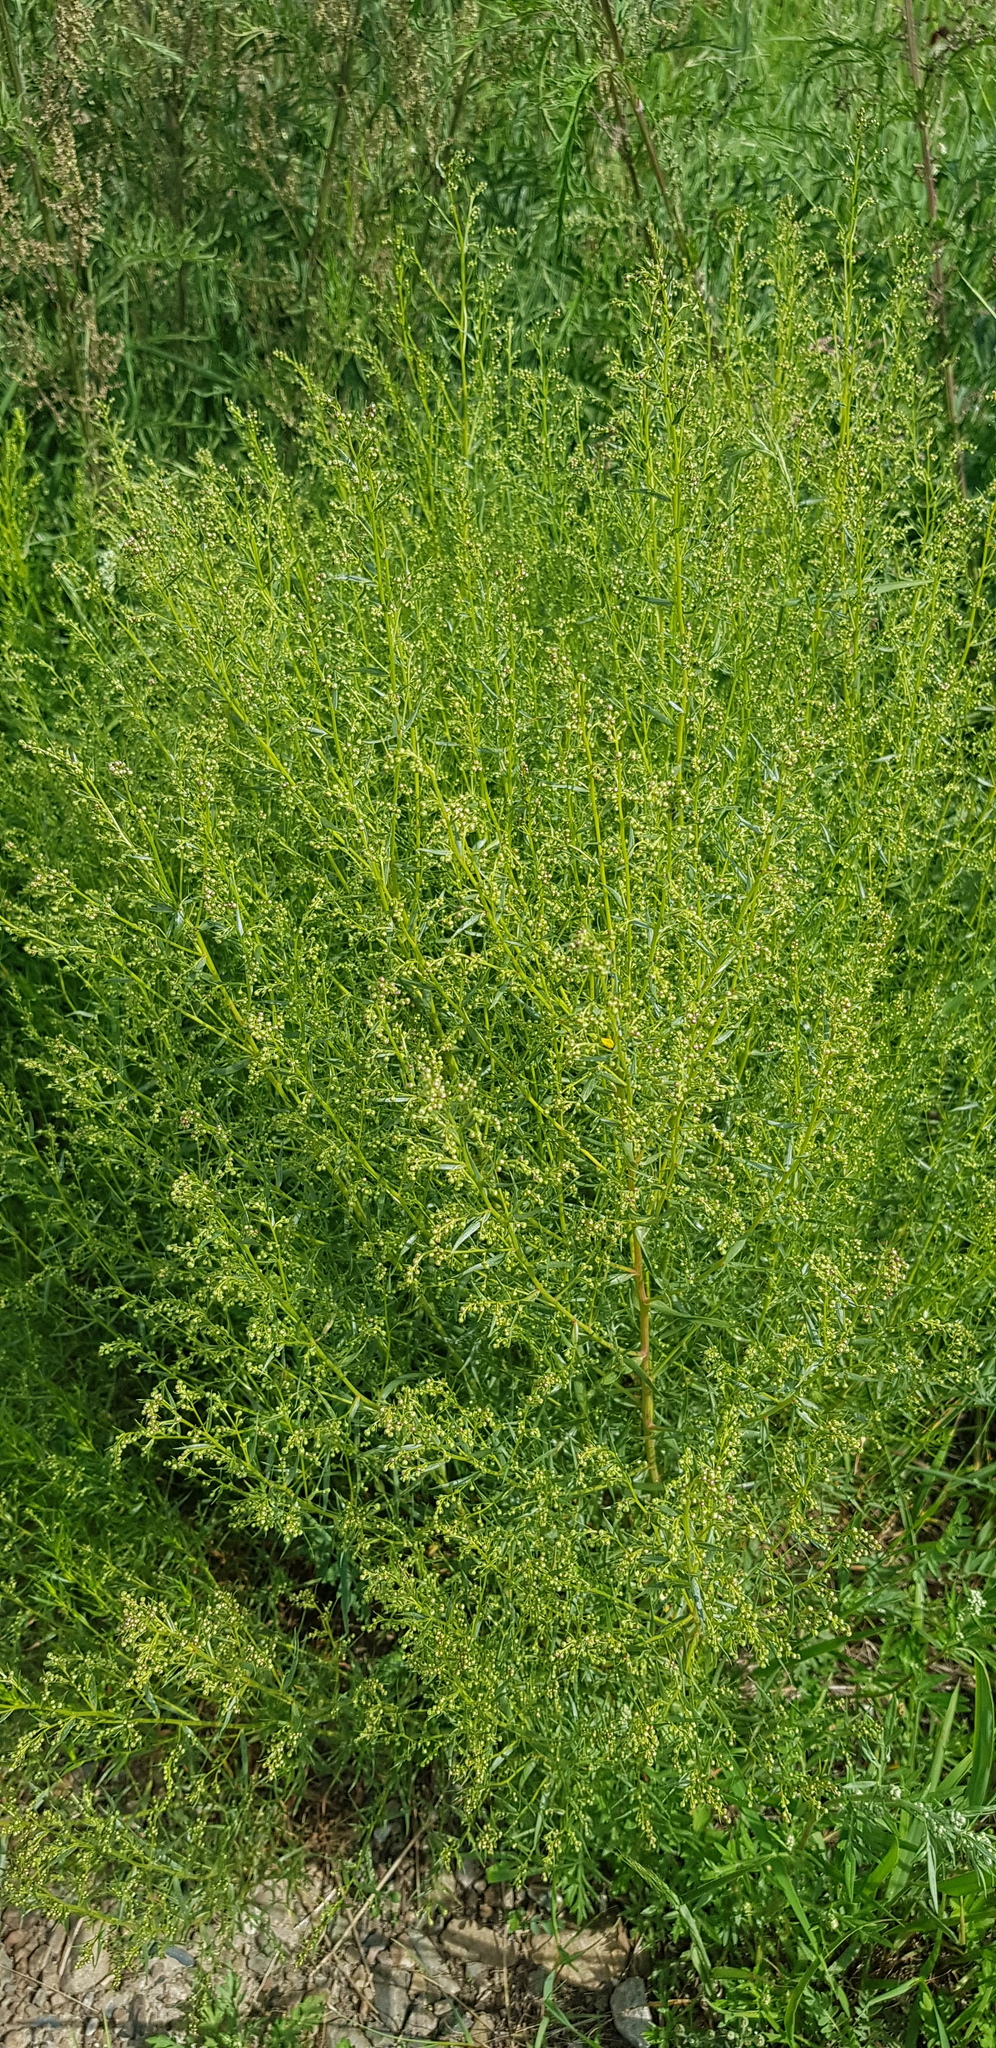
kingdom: Plantae
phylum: Tracheophyta
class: Magnoliopsida
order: Asterales
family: Asteraceae
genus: Artemisia
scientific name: Artemisia scoparia
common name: Redstem wormwood
